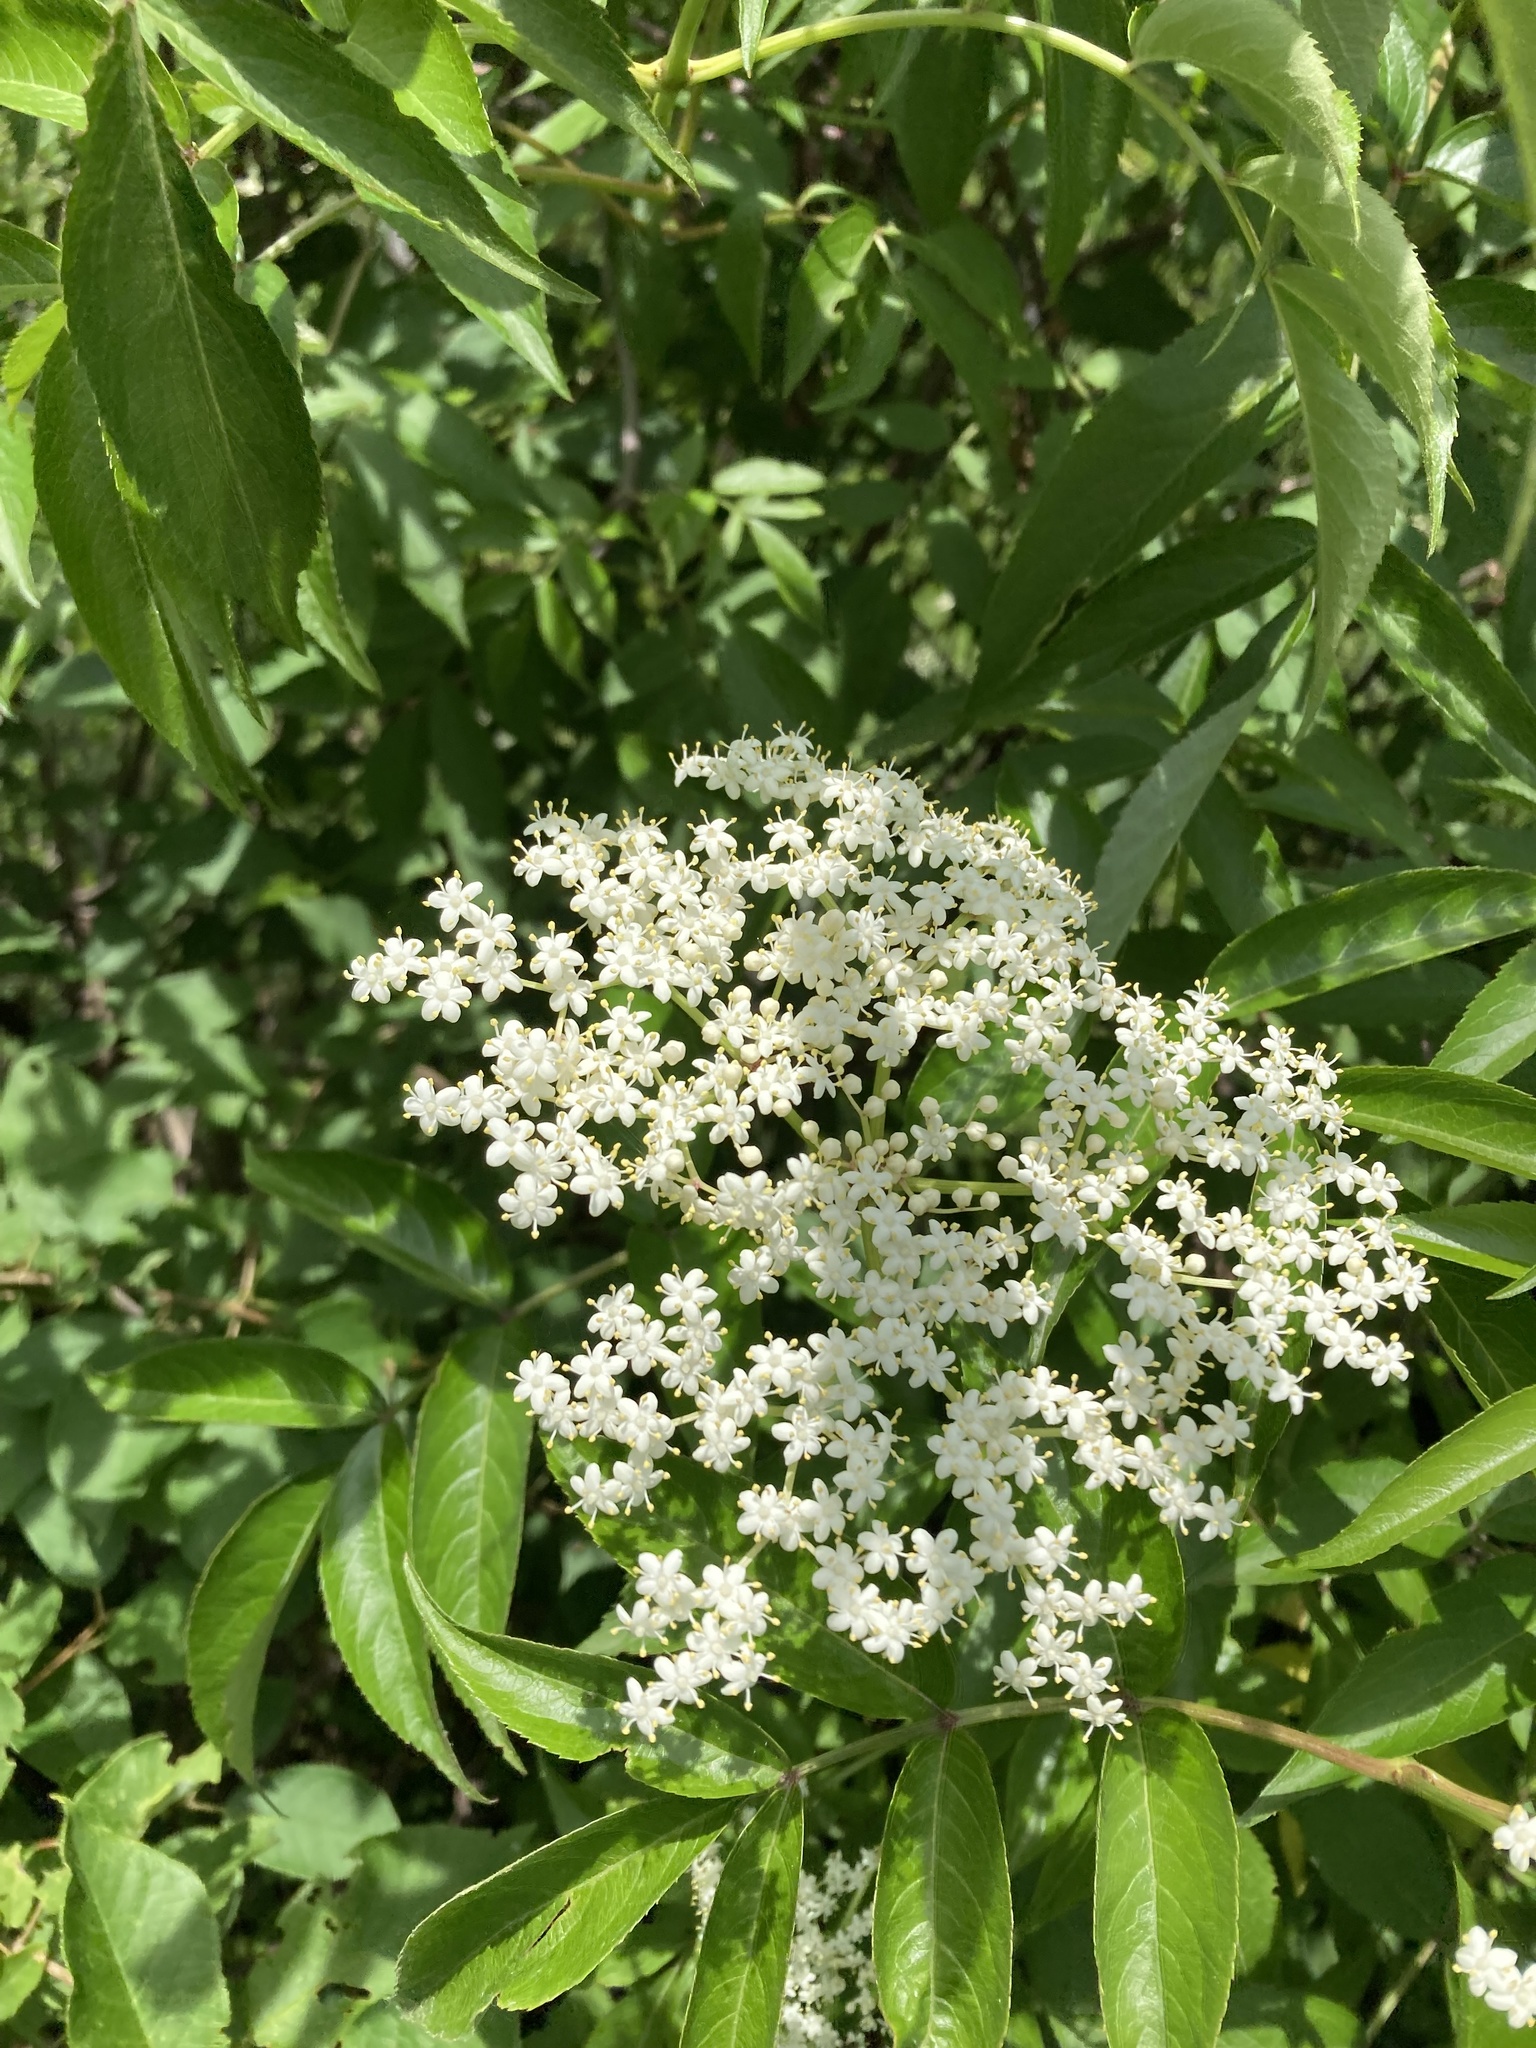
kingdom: Plantae
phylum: Tracheophyta
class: Magnoliopsida
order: Dipsacales
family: Viburnaceae
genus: Sambucus
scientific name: Sambucus canadensis
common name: American elder
